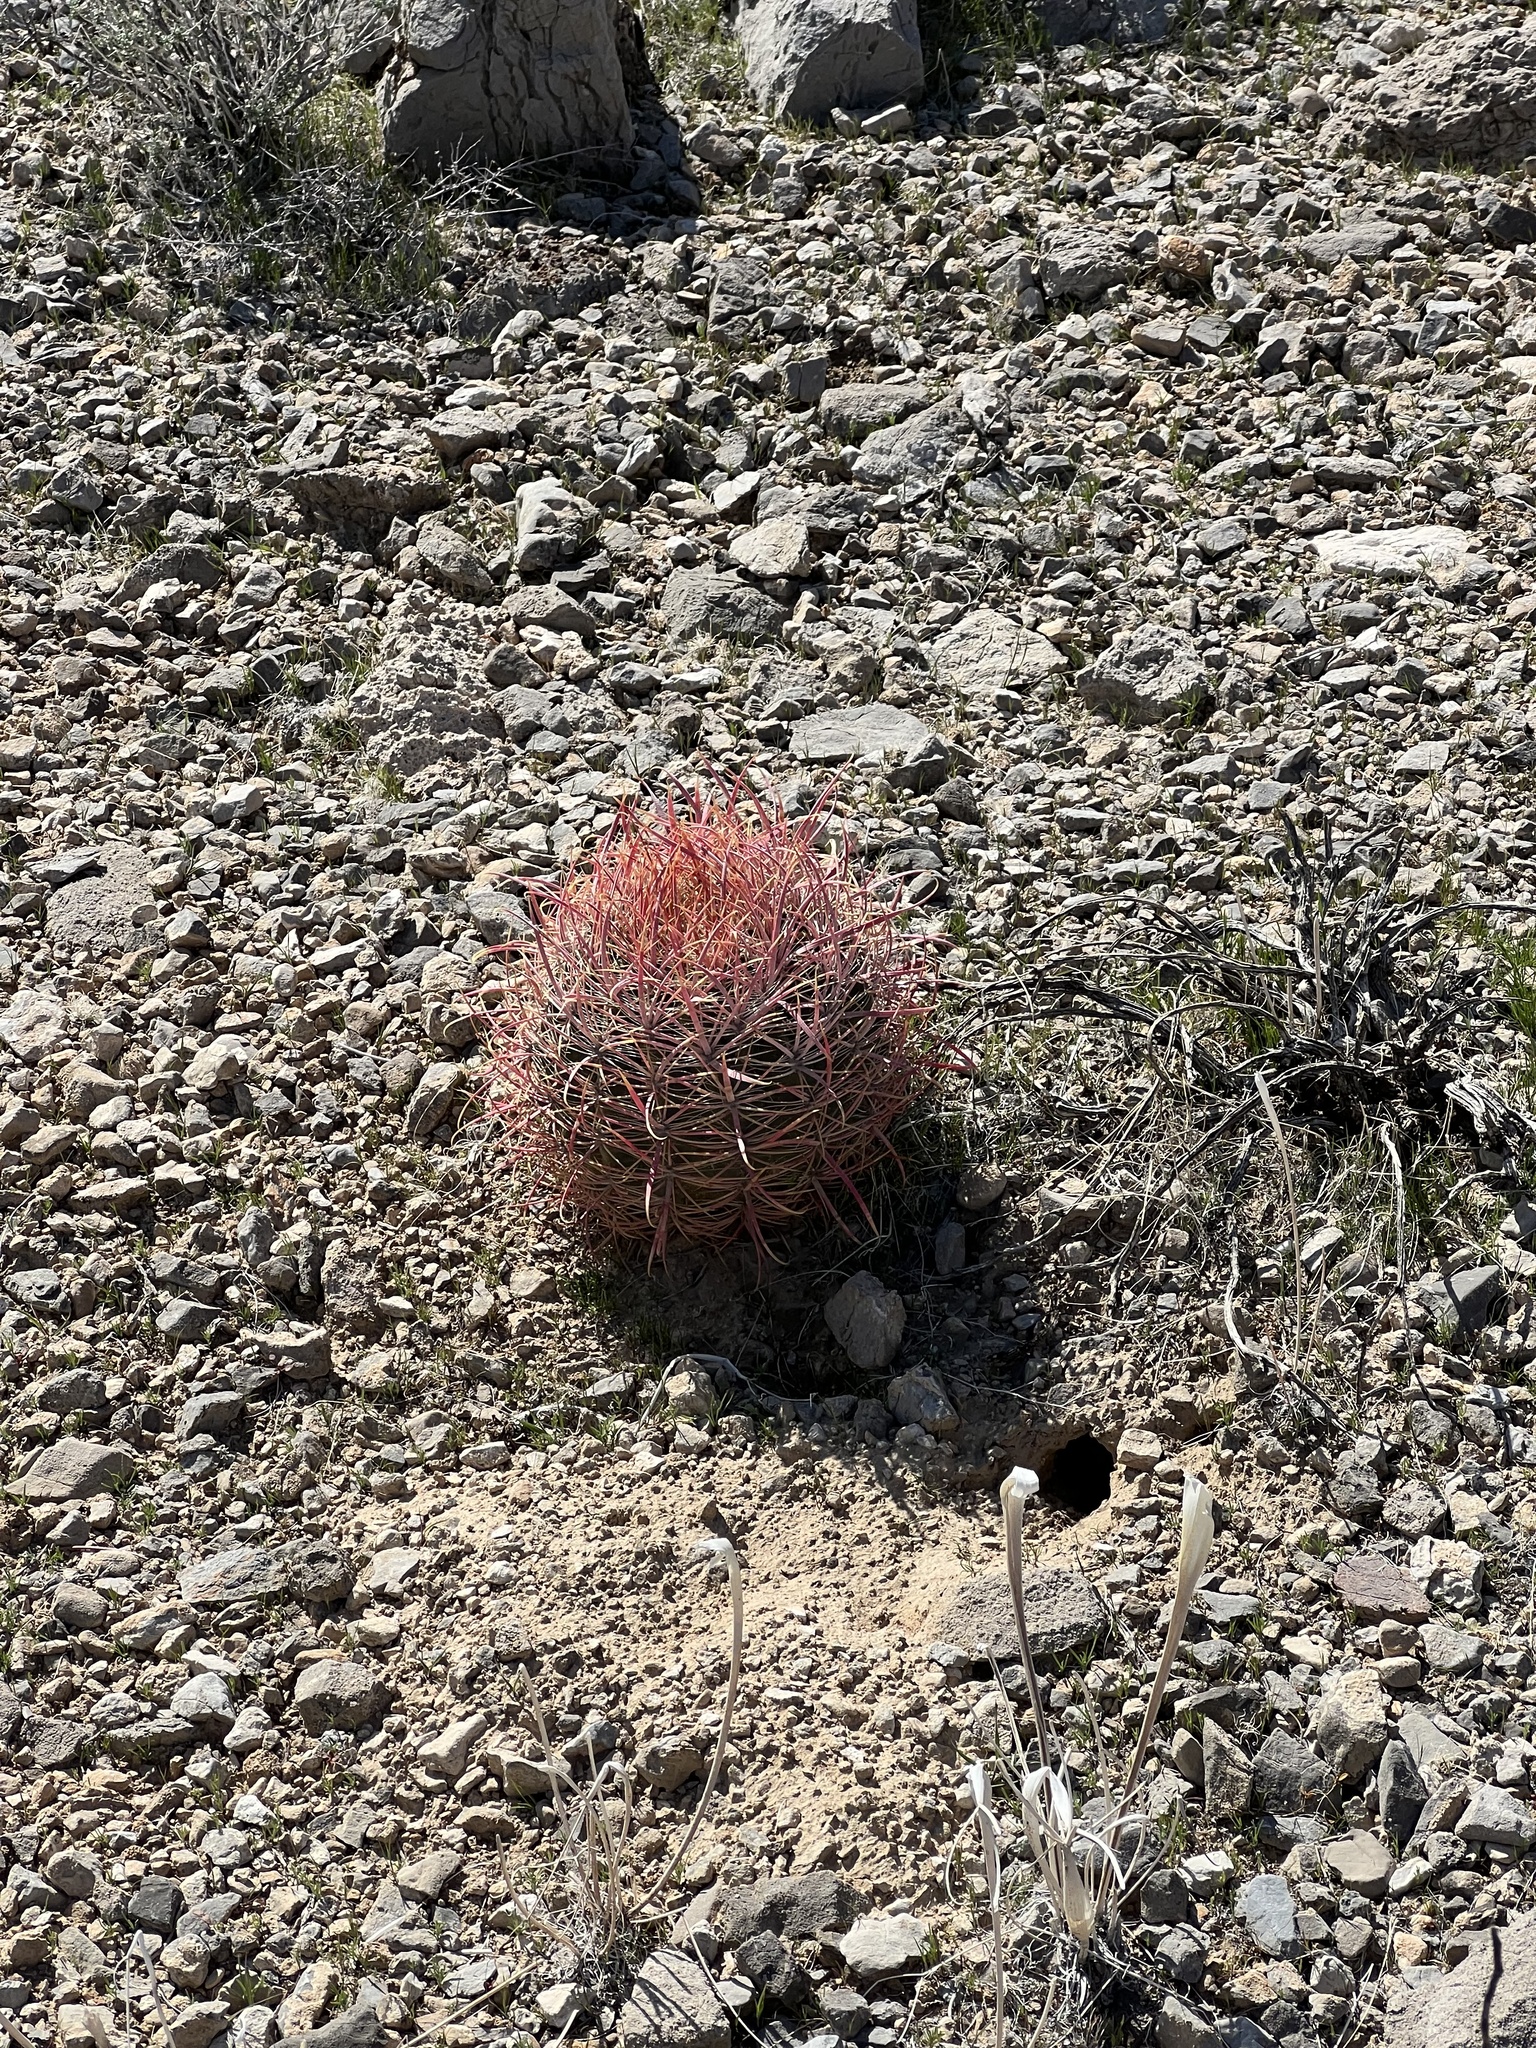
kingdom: Plantae
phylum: Tracheophyta
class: Magnoliopsida
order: Caryophyllales
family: Cactaceae
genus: Ferocactus
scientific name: Ferocactus cylindraceus
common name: California barrel cactus
